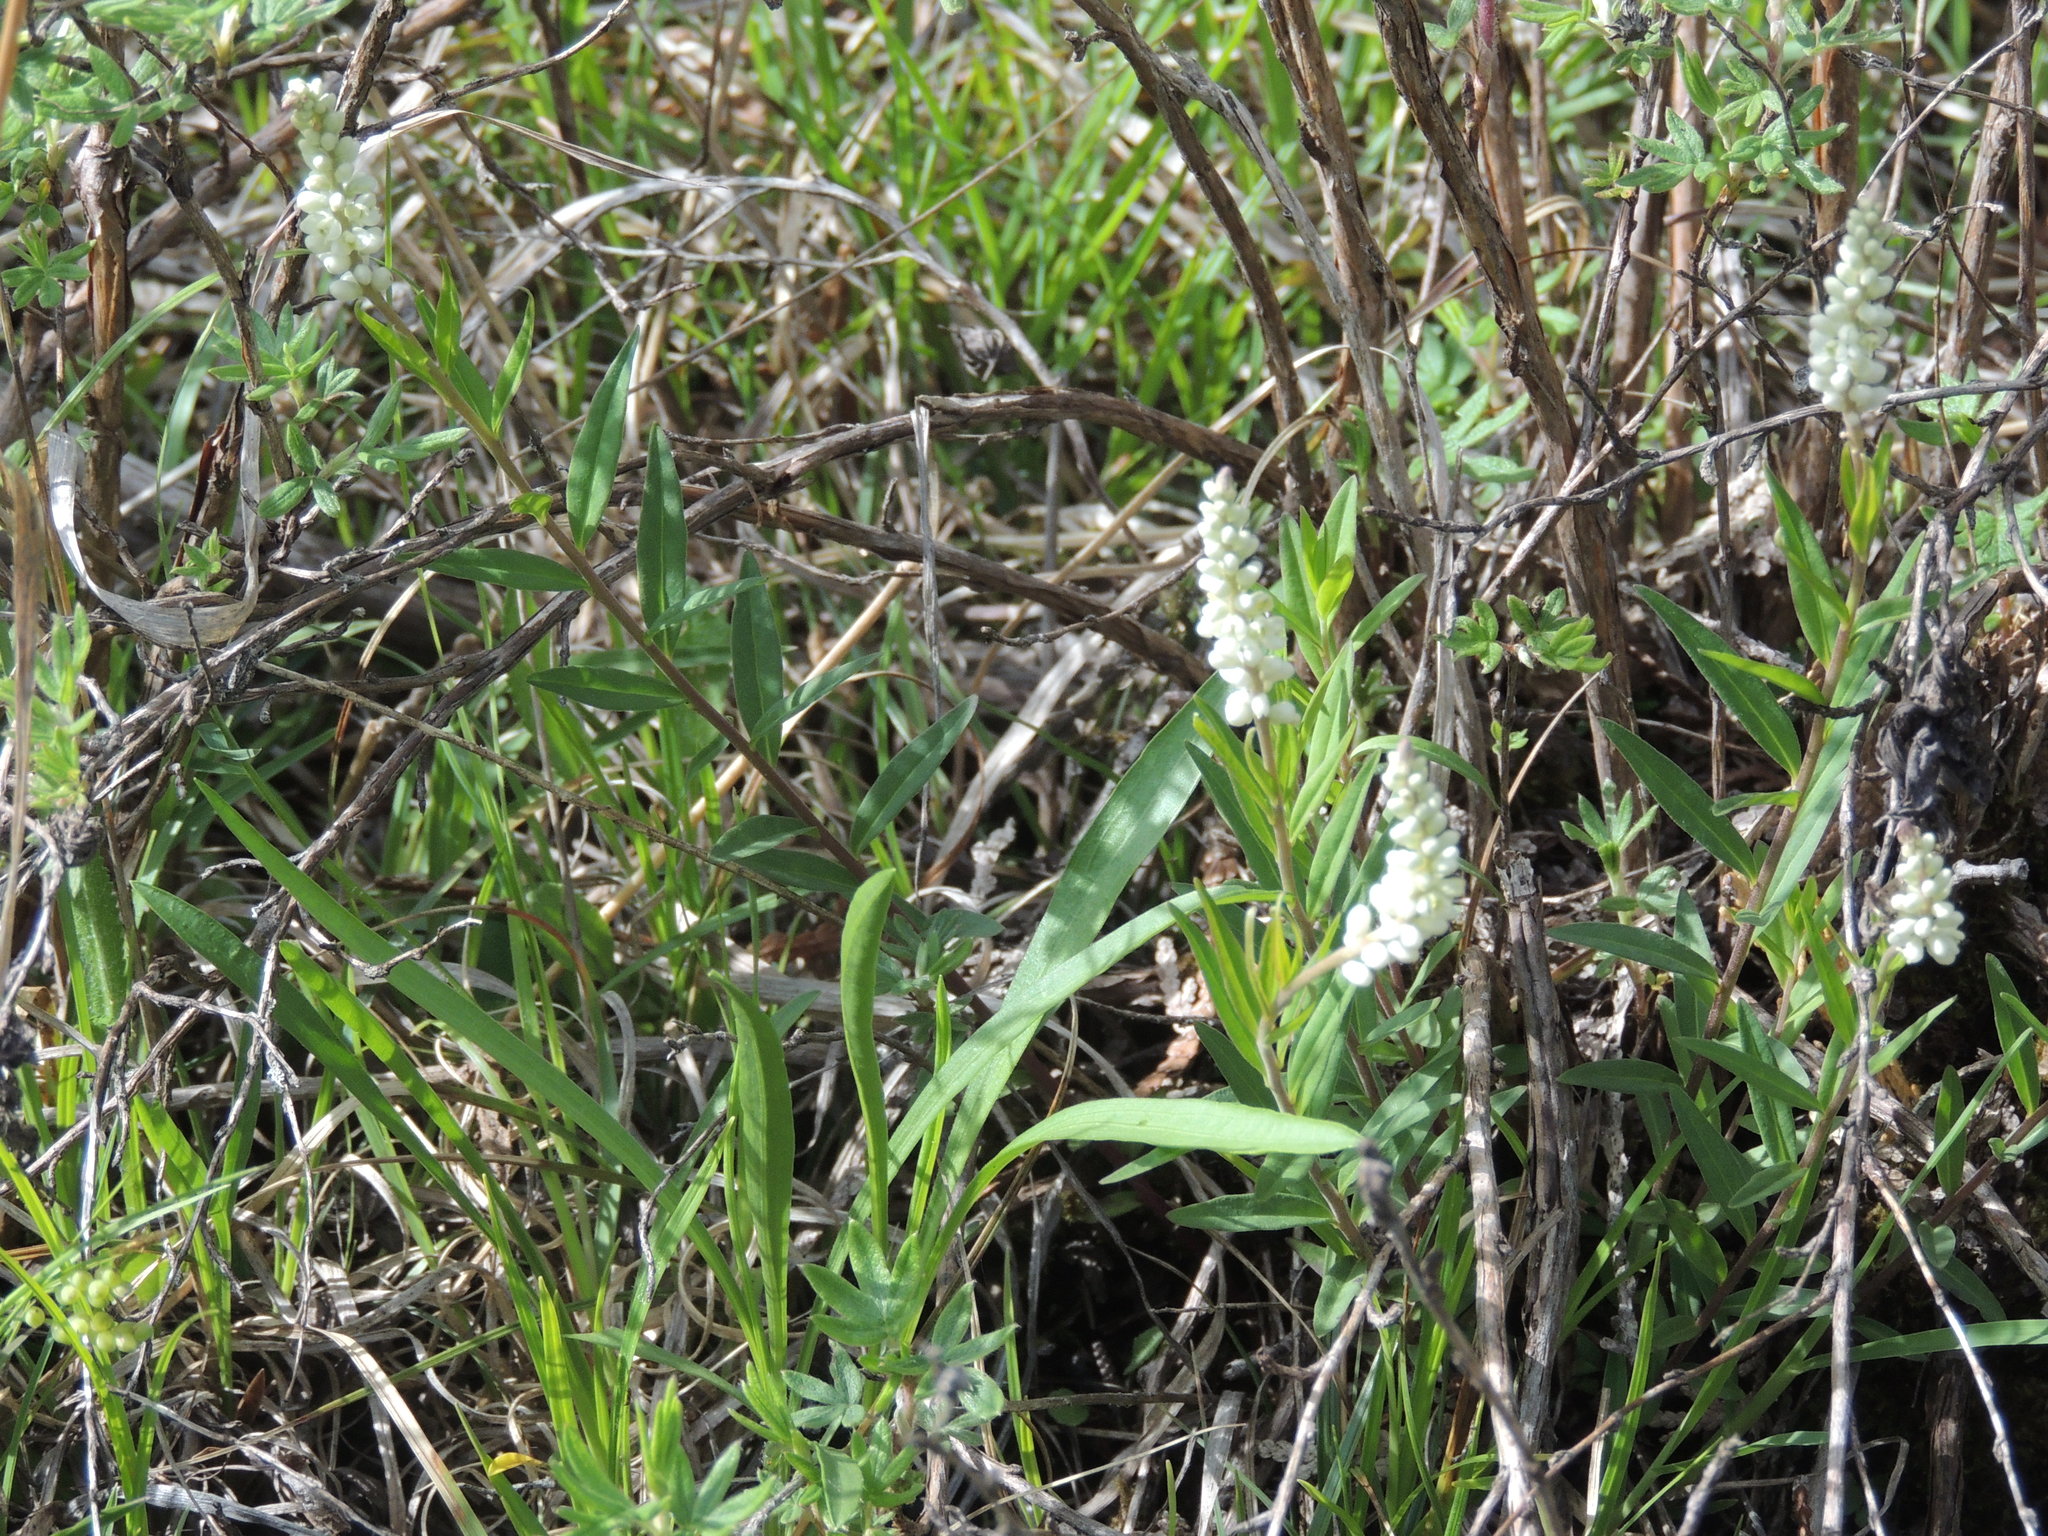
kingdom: Plantae
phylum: Tracheophyta
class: Magnoliopsida
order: Fabales
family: Polygalaceae
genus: Polygala
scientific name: Polygala senega
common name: Seneca snakeroot
